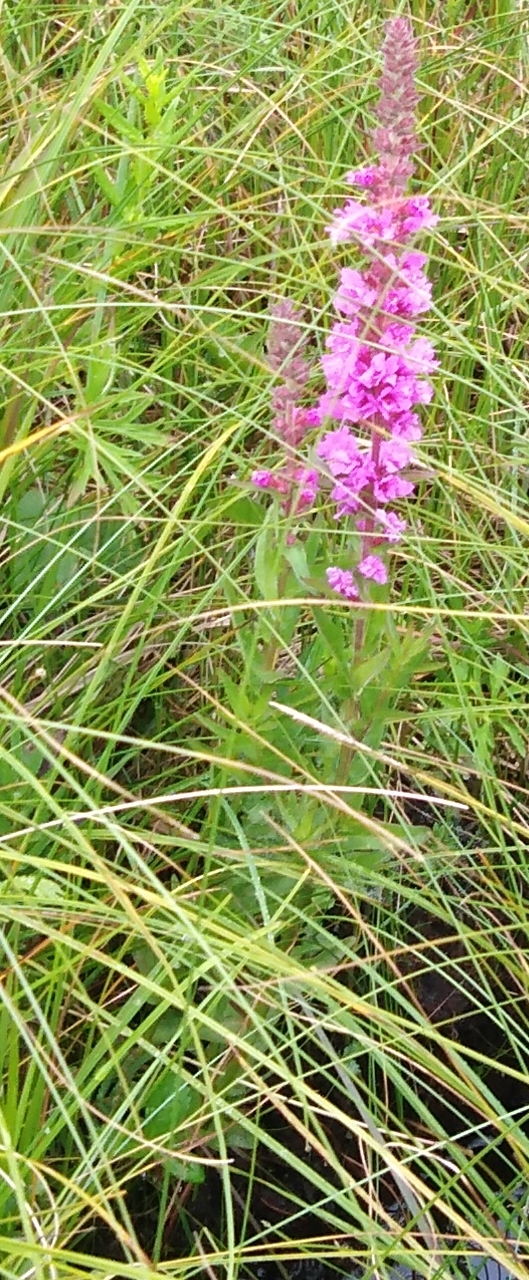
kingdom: Plantae
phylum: Tracheophyta
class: Magnoliopsida
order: Myrtales
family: Lythraceae
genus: Lythrum
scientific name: Lythrum salicaria
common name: Purple loosestrife
